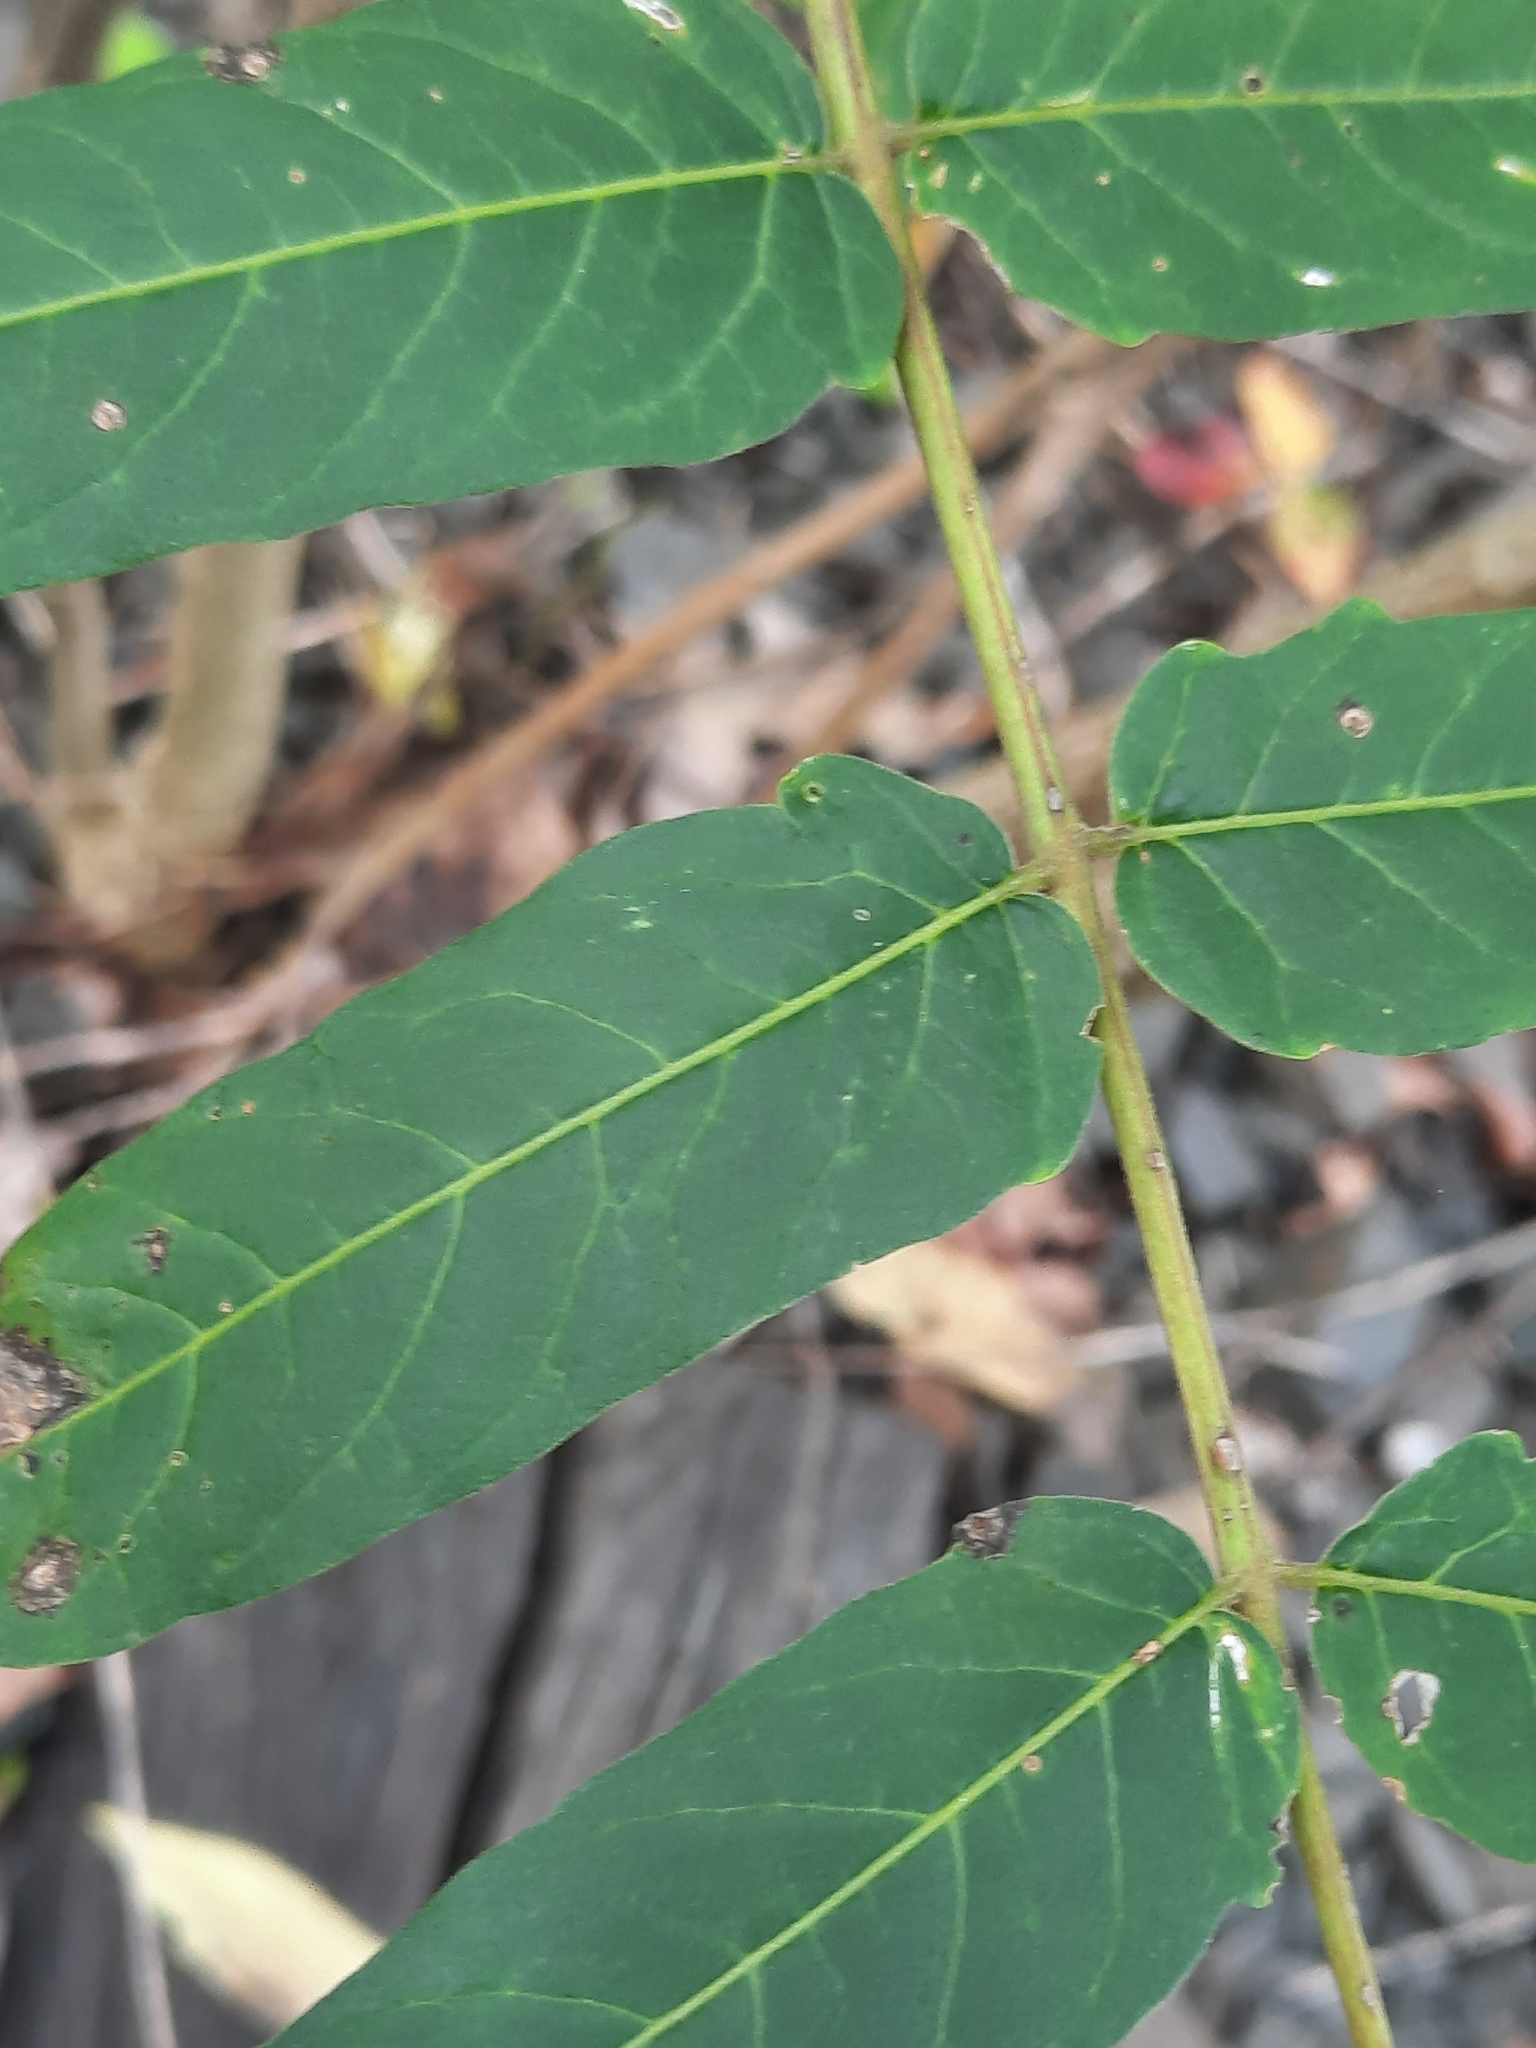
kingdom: Plantae
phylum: Tracheophyta
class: Magnoliopsida
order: Sapindales
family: Simaroubaceae
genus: Ailanthus
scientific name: Ailanthus altissima
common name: Tree-of-heaven
